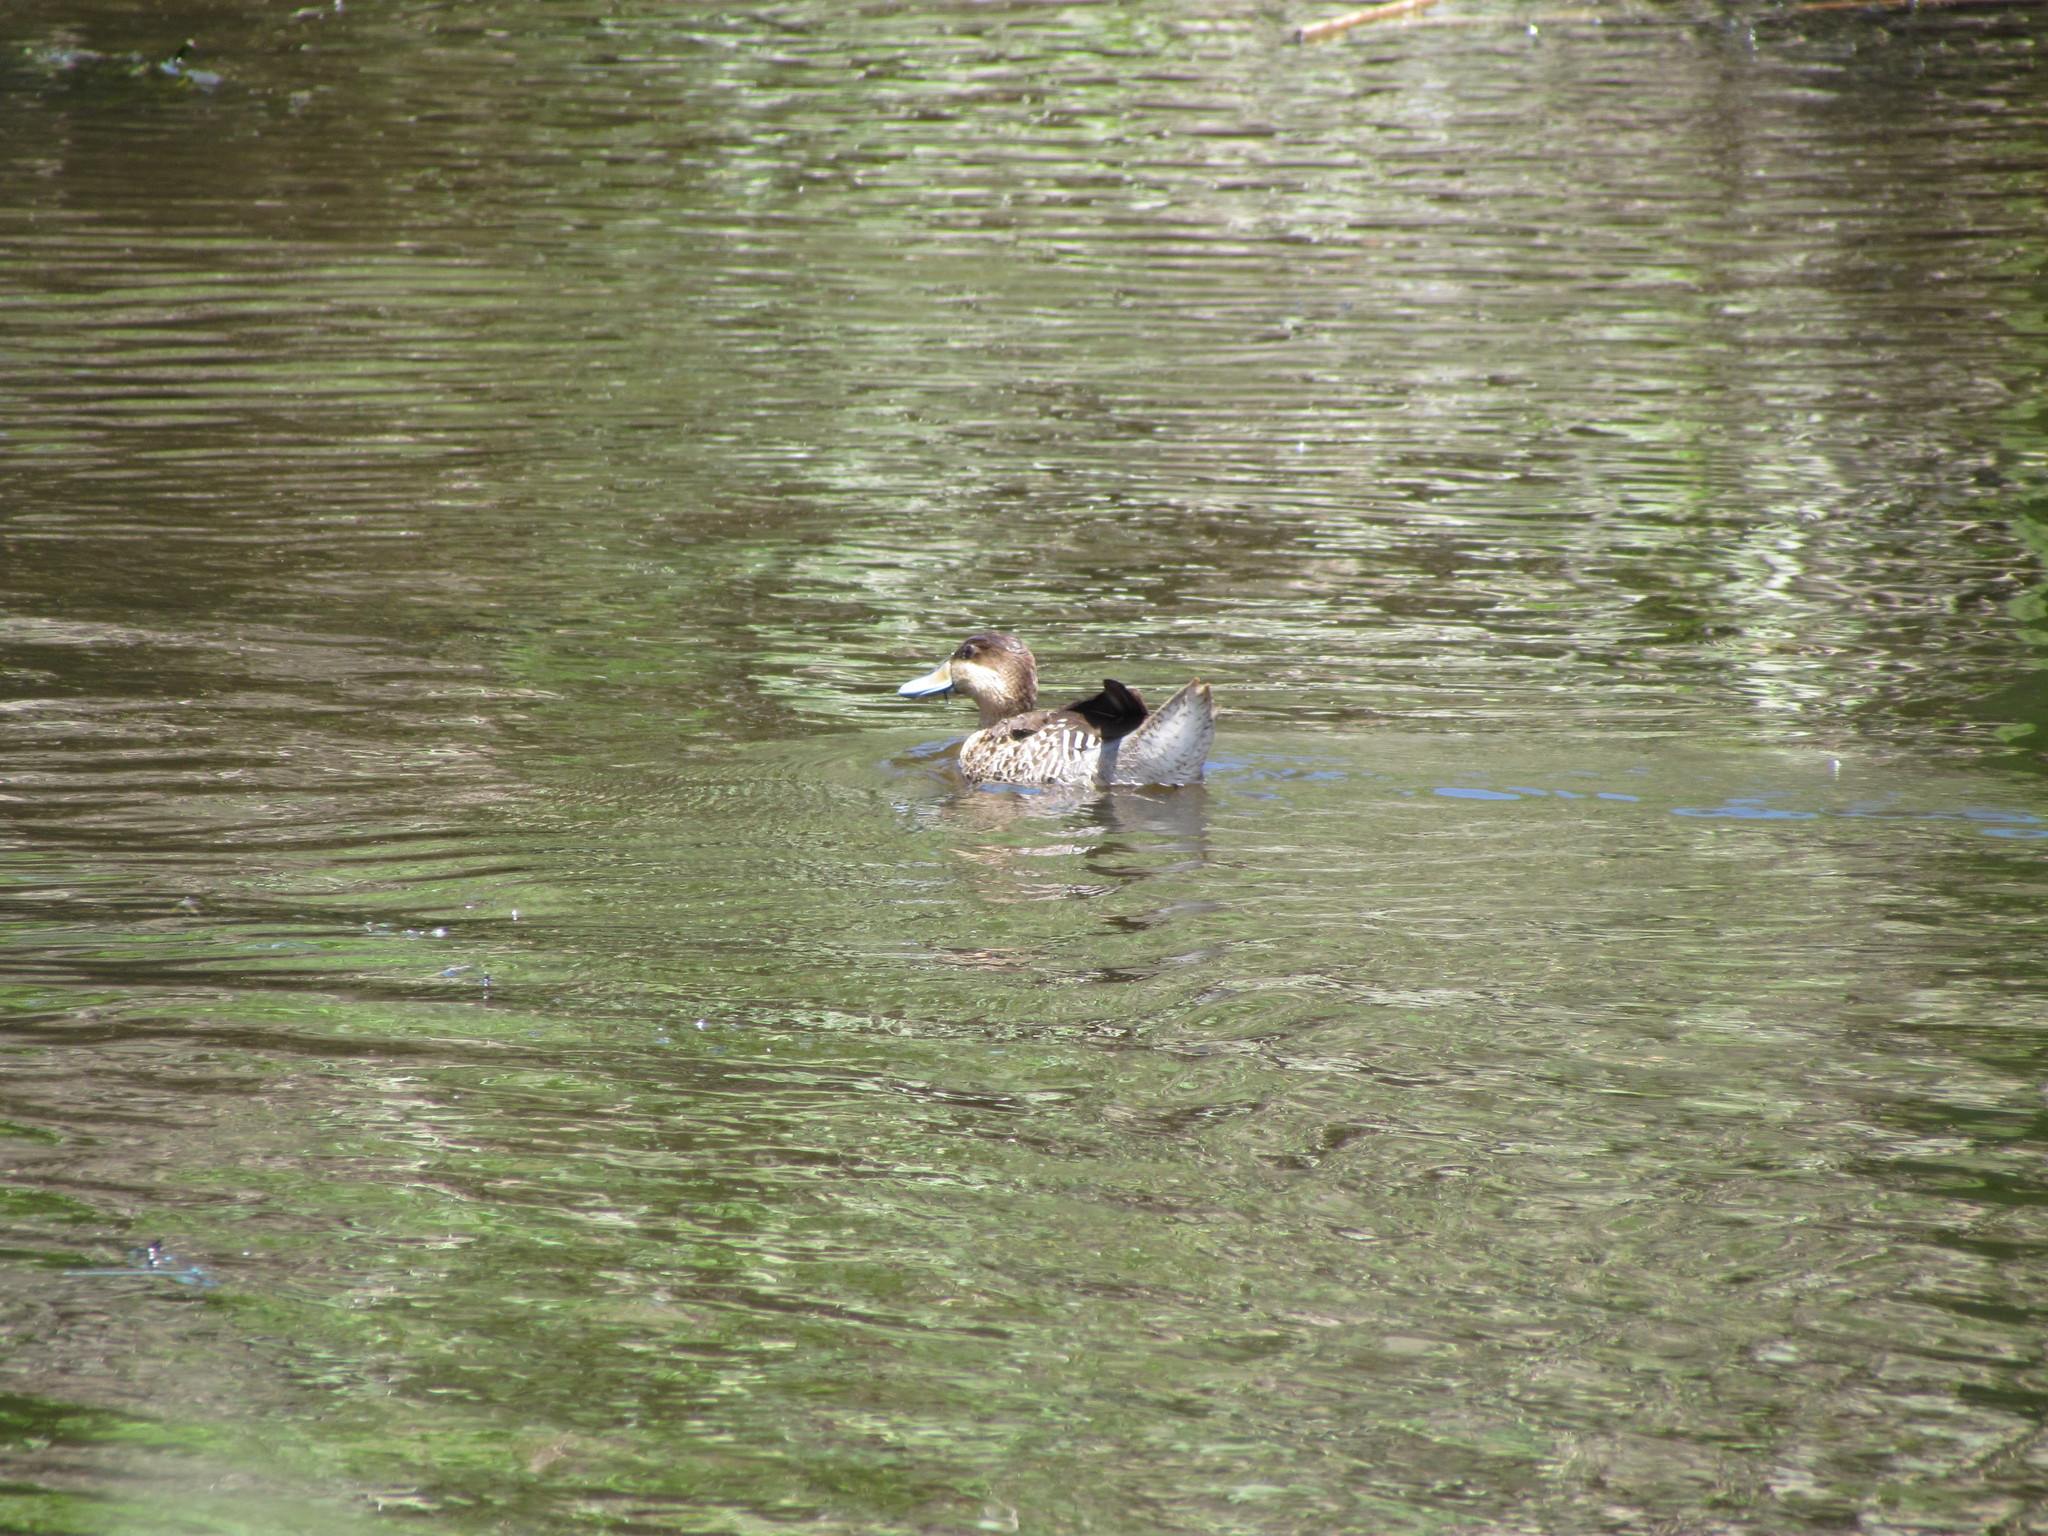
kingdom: Animalia
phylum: Chordata
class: Aves
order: Anseriformes
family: Anatidae
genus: Spatula
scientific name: Spatula versicolor
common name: Silver teal
